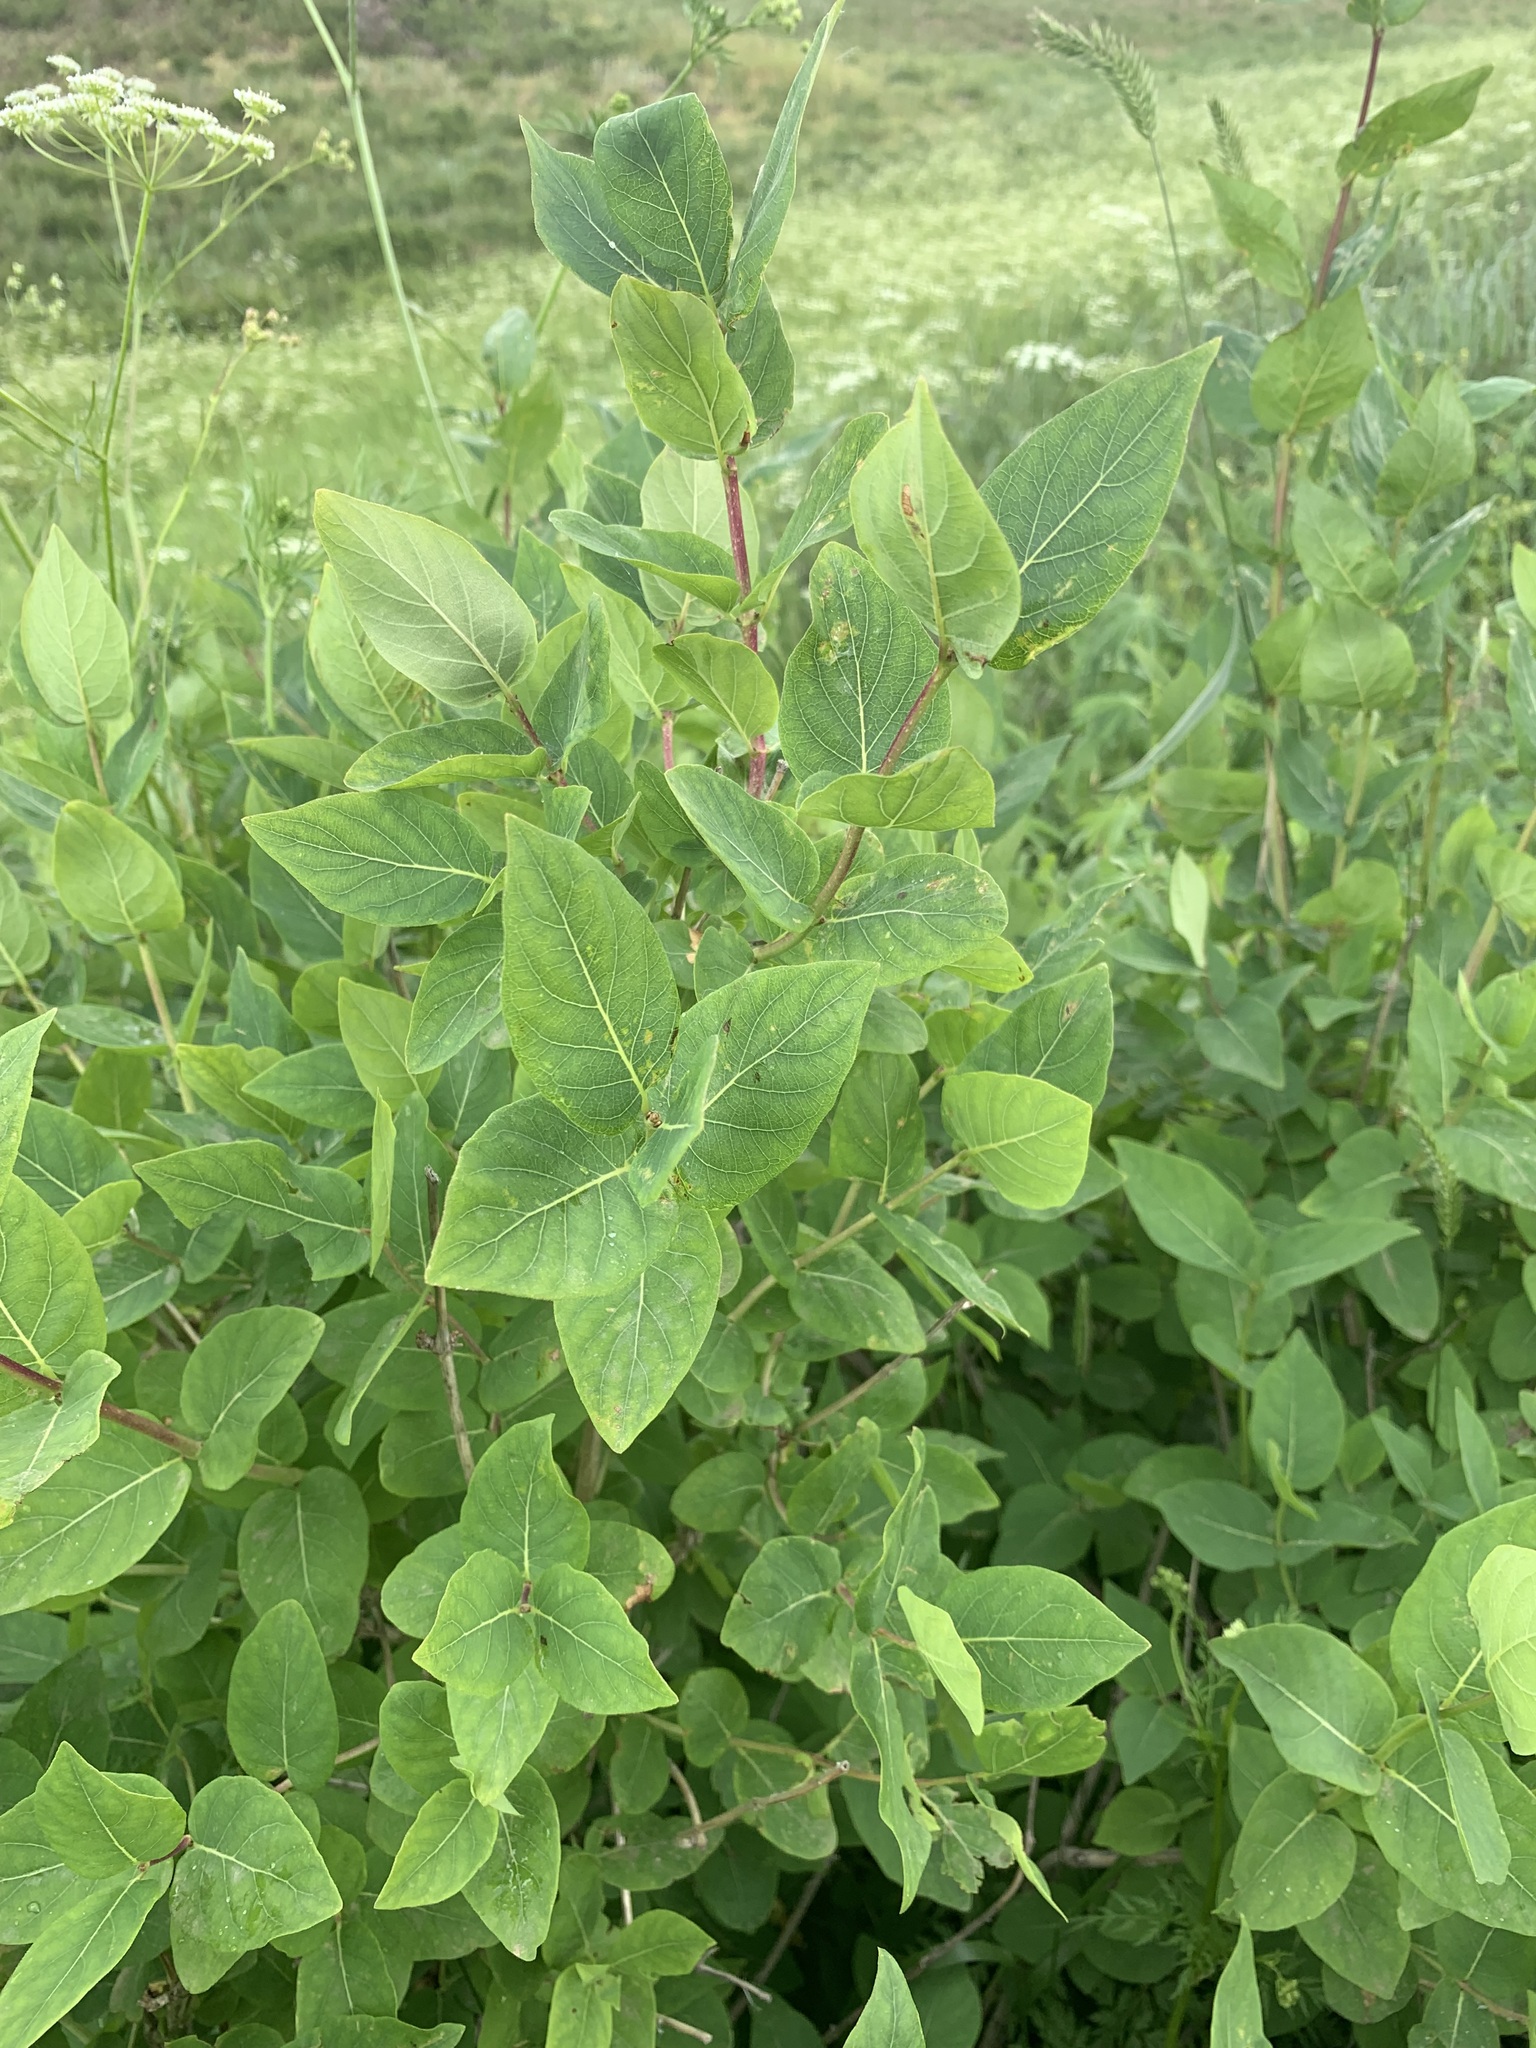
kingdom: Plantae
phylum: Tracheophyta
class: Magnoliopsida
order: Dipsacales
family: Caprifoliaceae
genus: Lonicera
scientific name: Lonicera tatarica
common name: Tatarian honeysuckle
